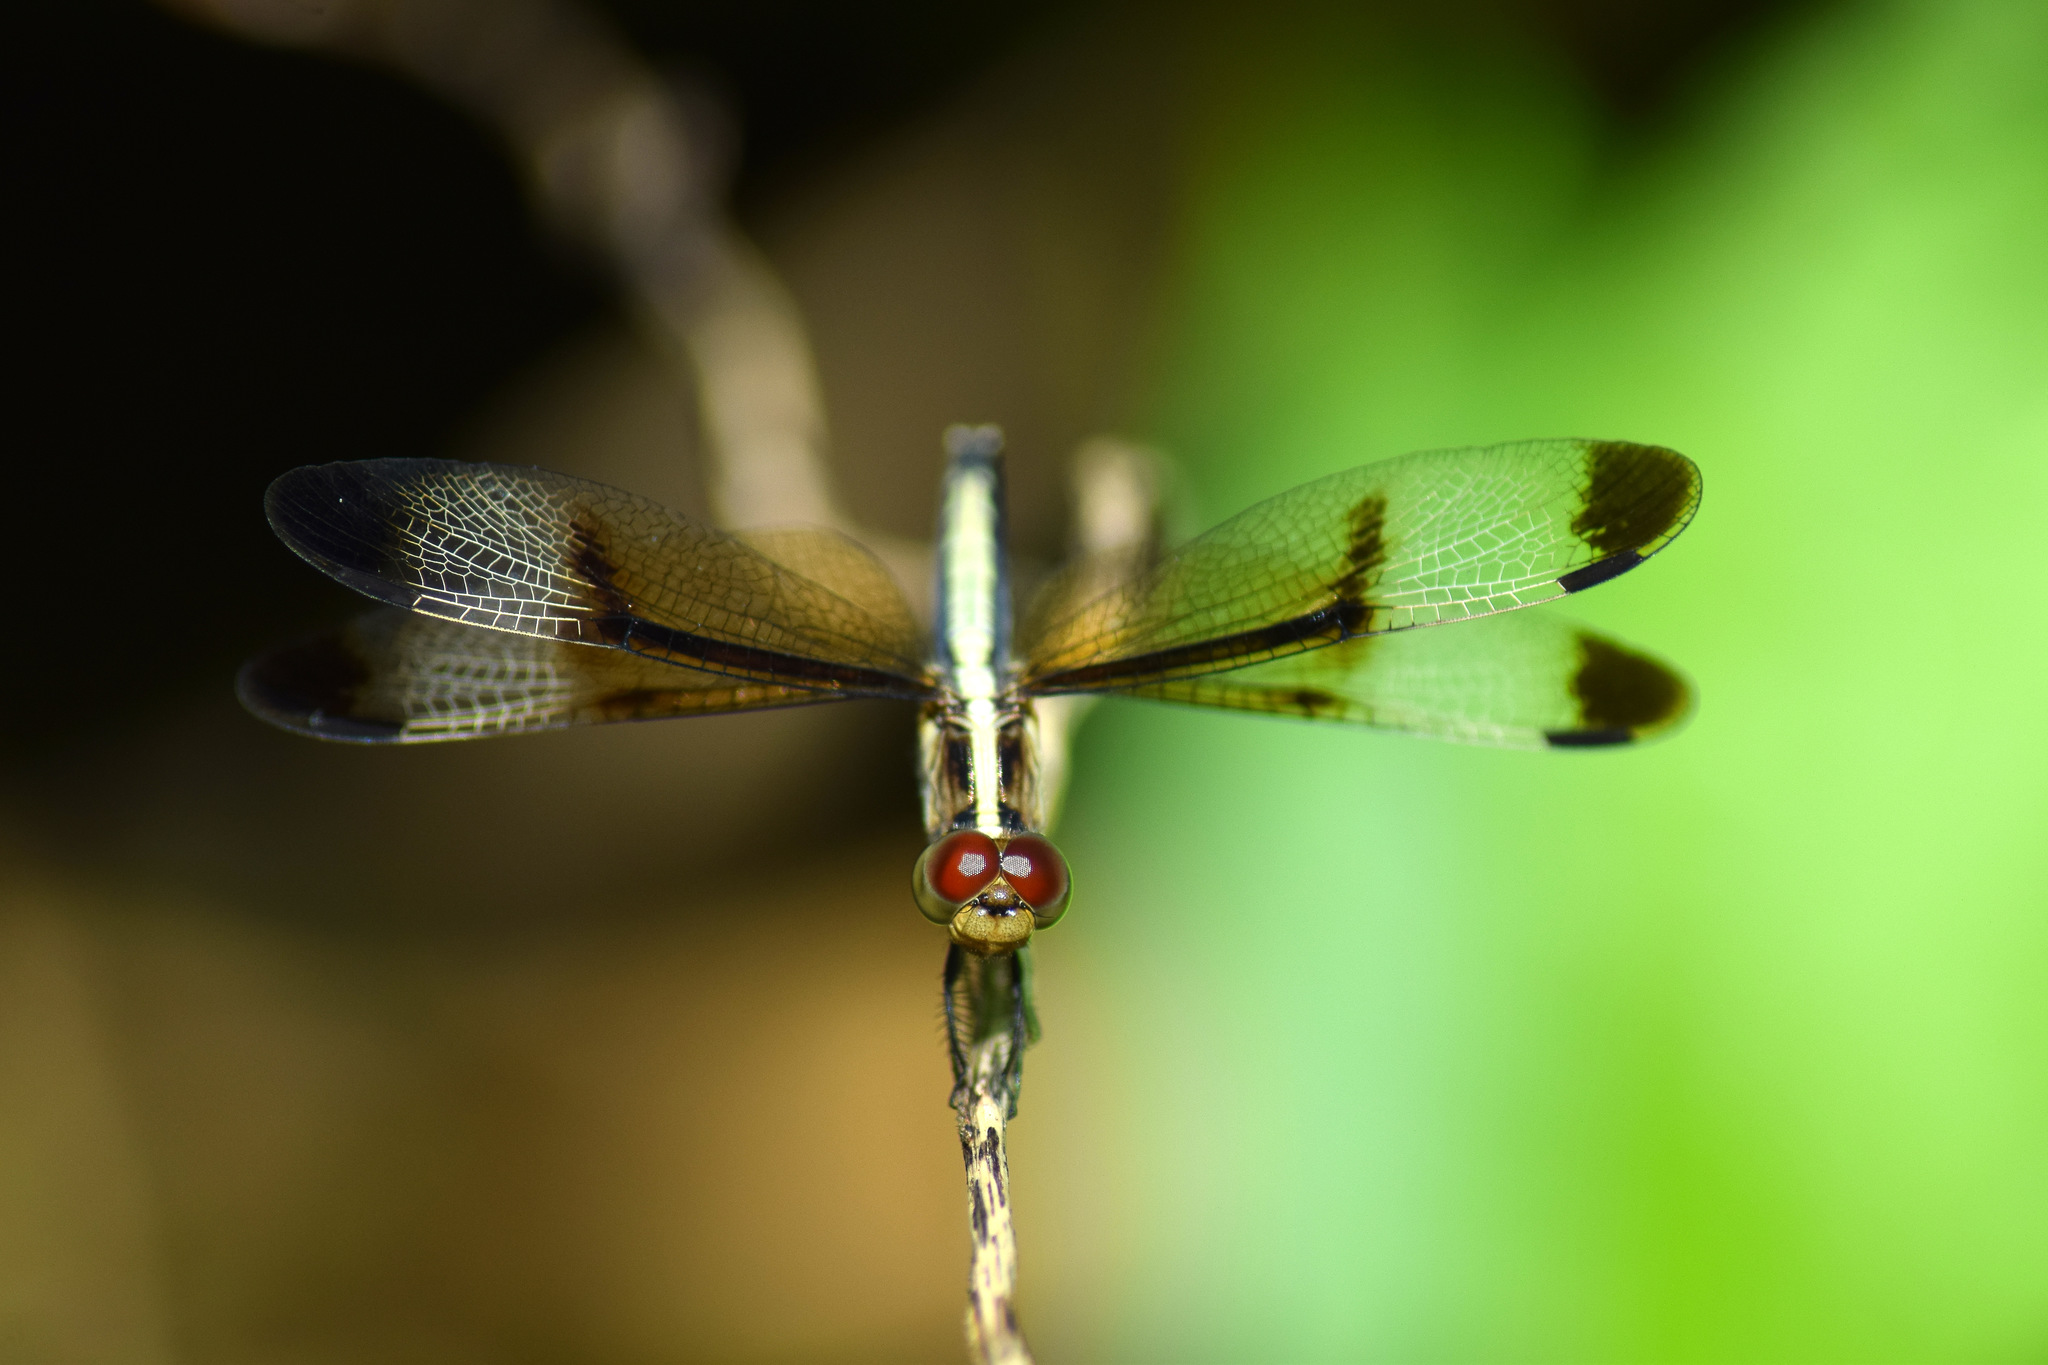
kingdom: Animalia
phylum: Arthropoda
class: Insecta
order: Odonata
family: Libellulidae
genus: Neurothemis
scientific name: Neurothemis tullia
